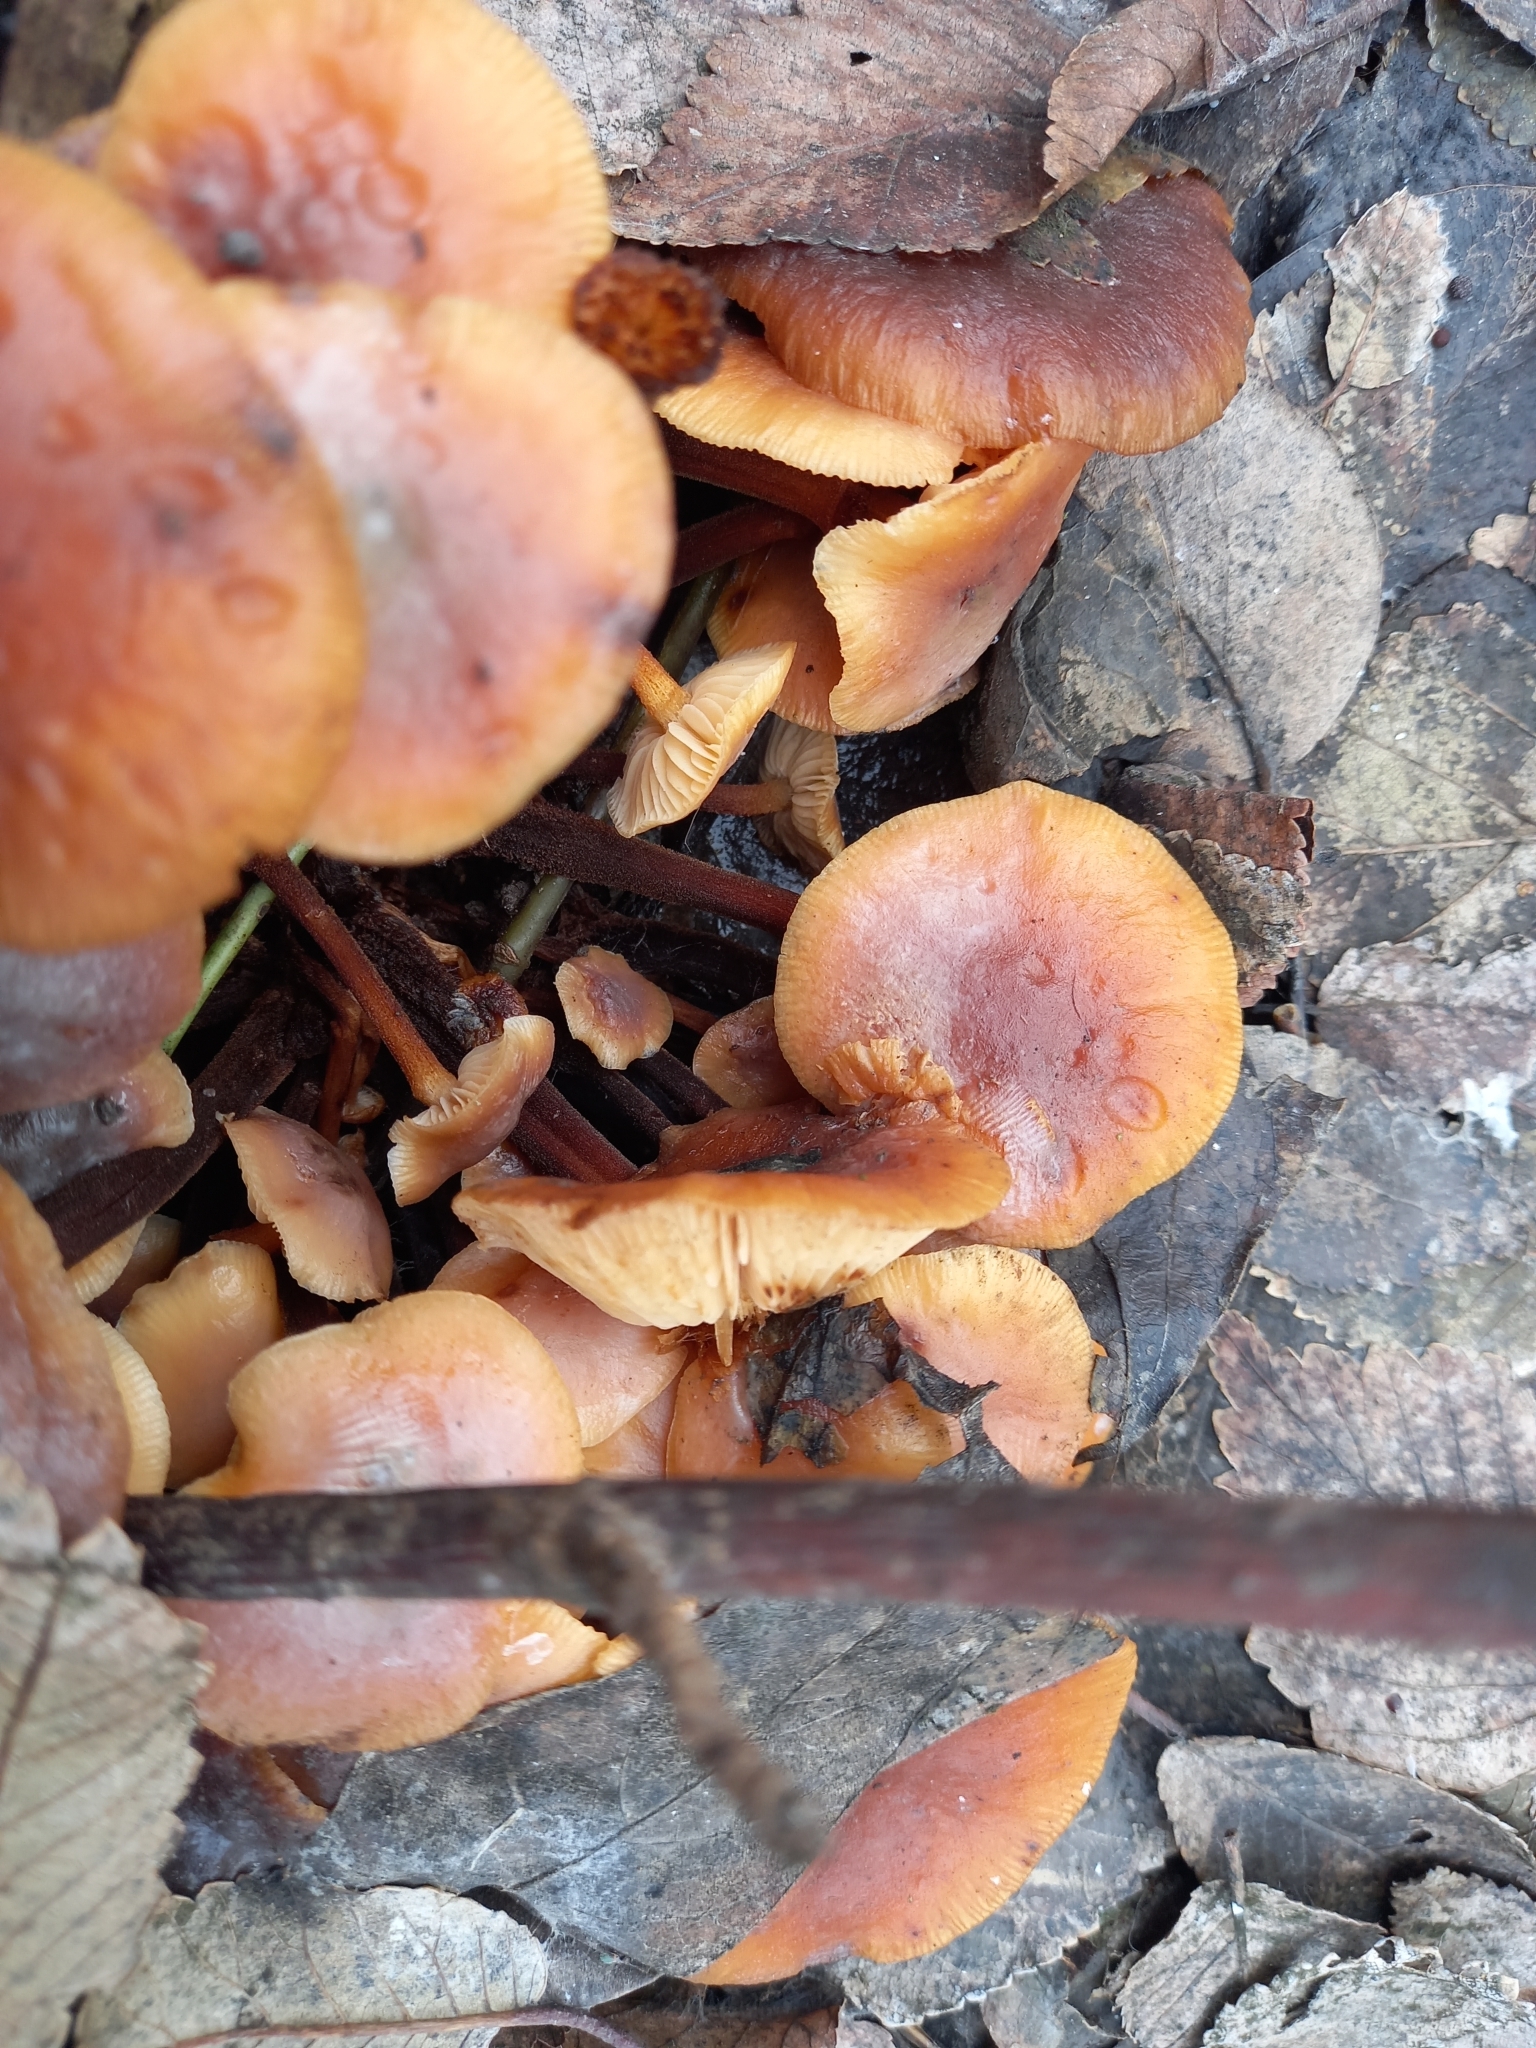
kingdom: Fungi
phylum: Basidiomycota
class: Agaricomycetes
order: Agaricales
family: Physalacriaceae
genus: Flammulina
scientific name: Flammulina
